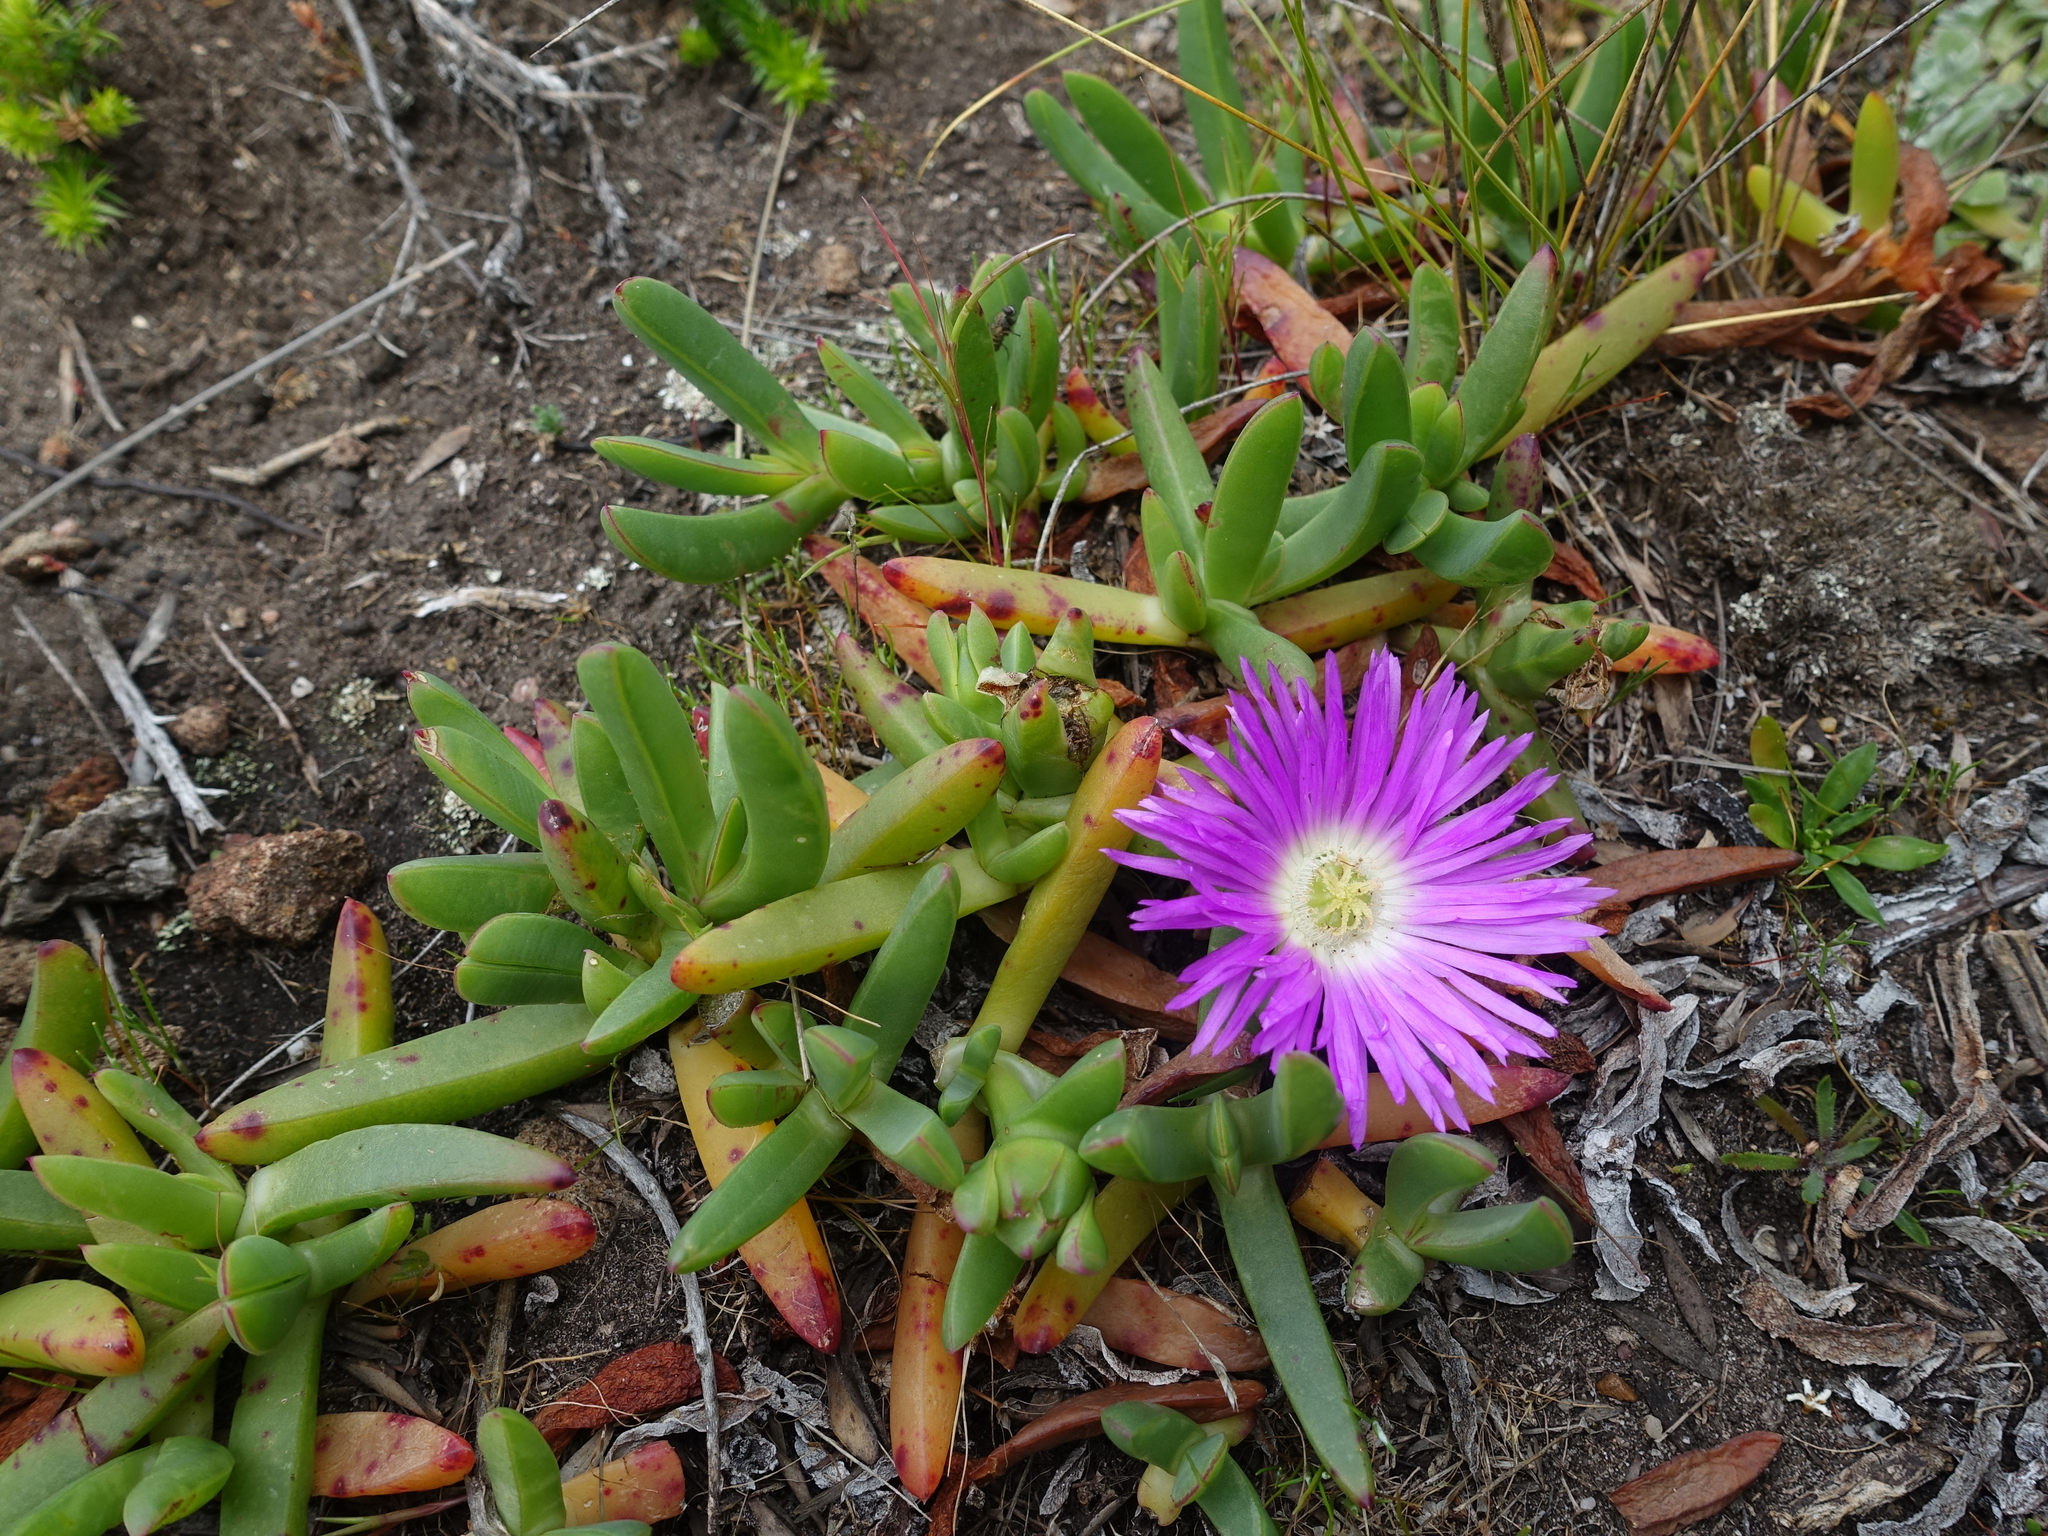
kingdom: Plantae
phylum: Tracheophyta
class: Magnoliopsida
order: Caryophyllales
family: Aizoaceae
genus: Carpobrotus
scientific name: Carpobrotus rossii
